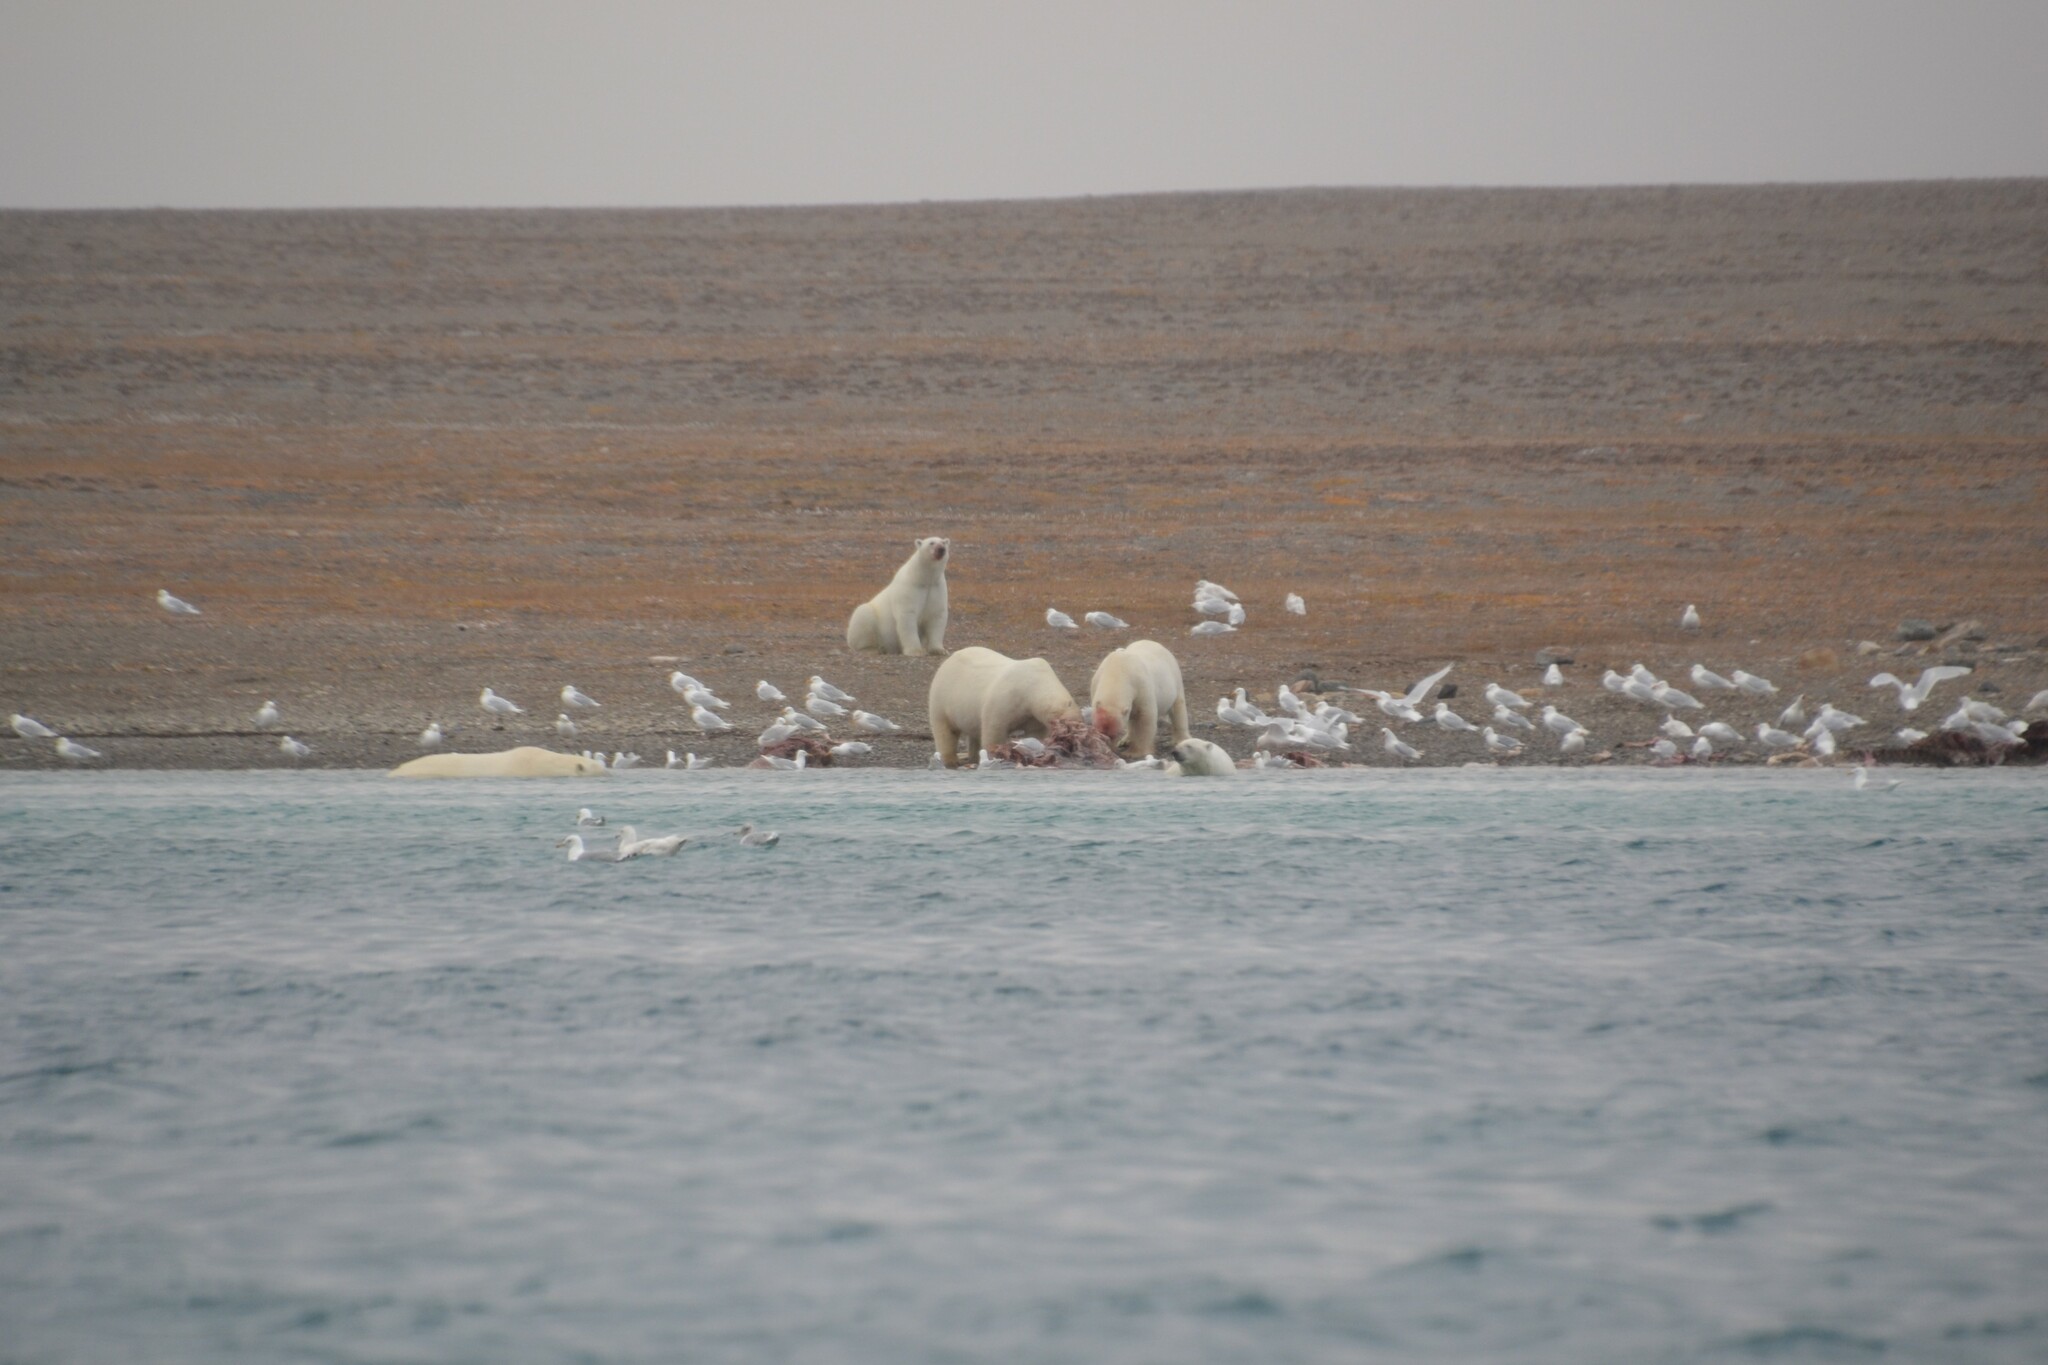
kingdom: Animalia
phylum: Chordata
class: Mammalia
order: Carnivora
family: Ursidae
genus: Ursus
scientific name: Ursus maritimus
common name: Polar bear
